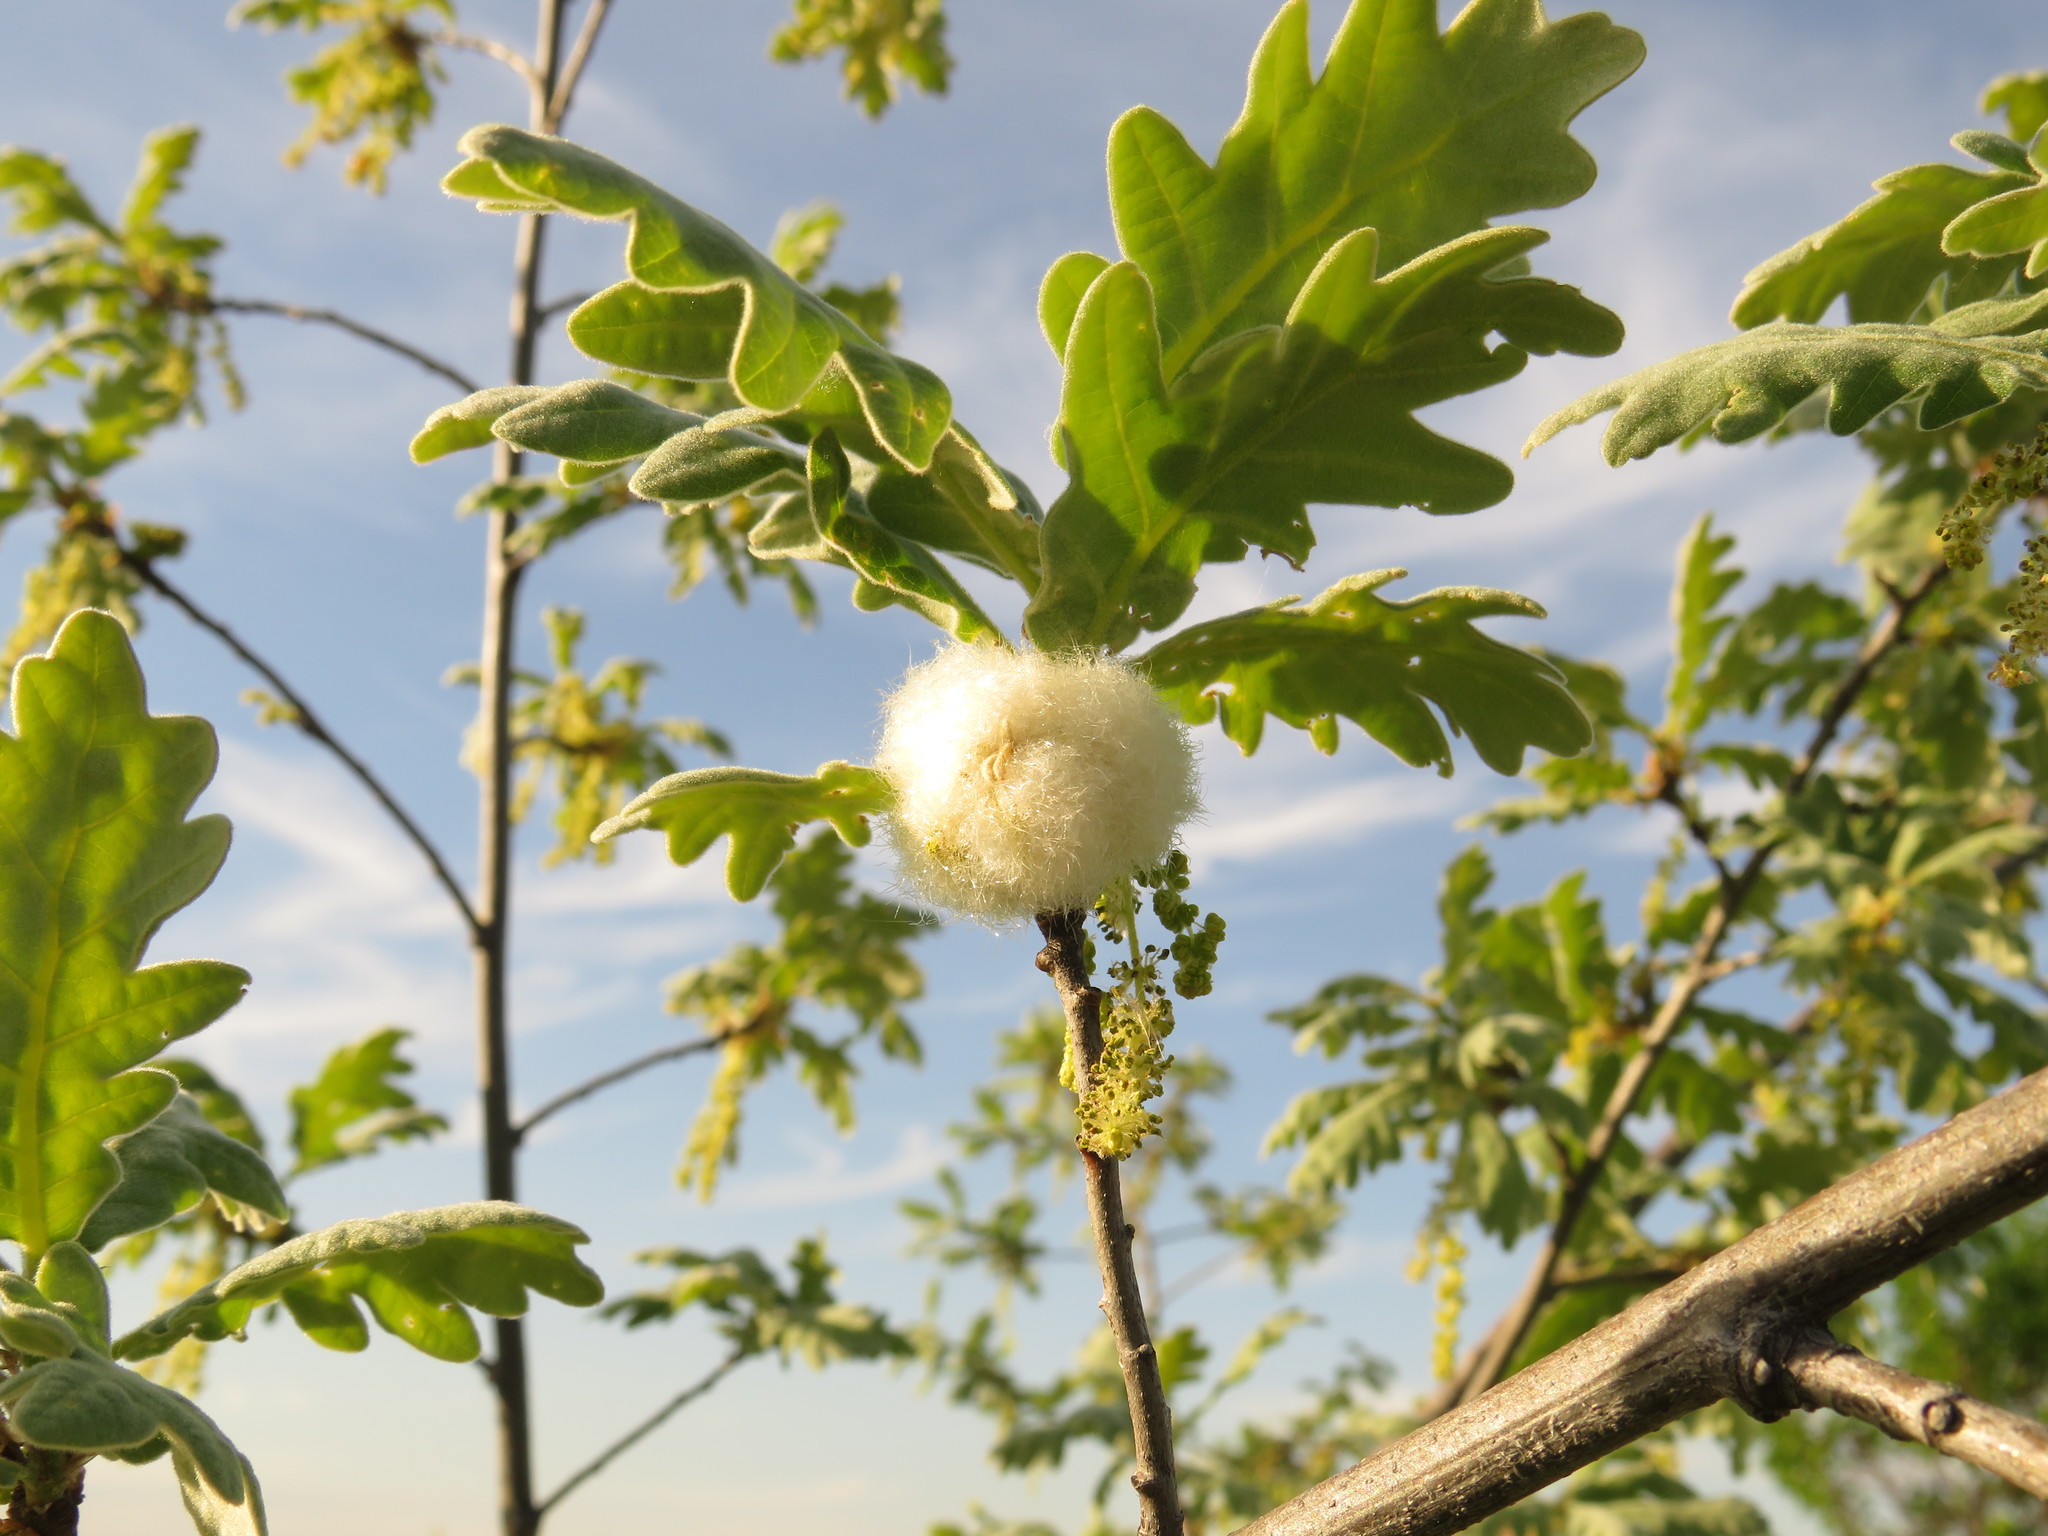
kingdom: Animalia
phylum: Arthropoda
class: Insecta
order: Hymenoptera
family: Cynipidae
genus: Andricus
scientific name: Andricus quercusramuli
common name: Cottonwool gall
